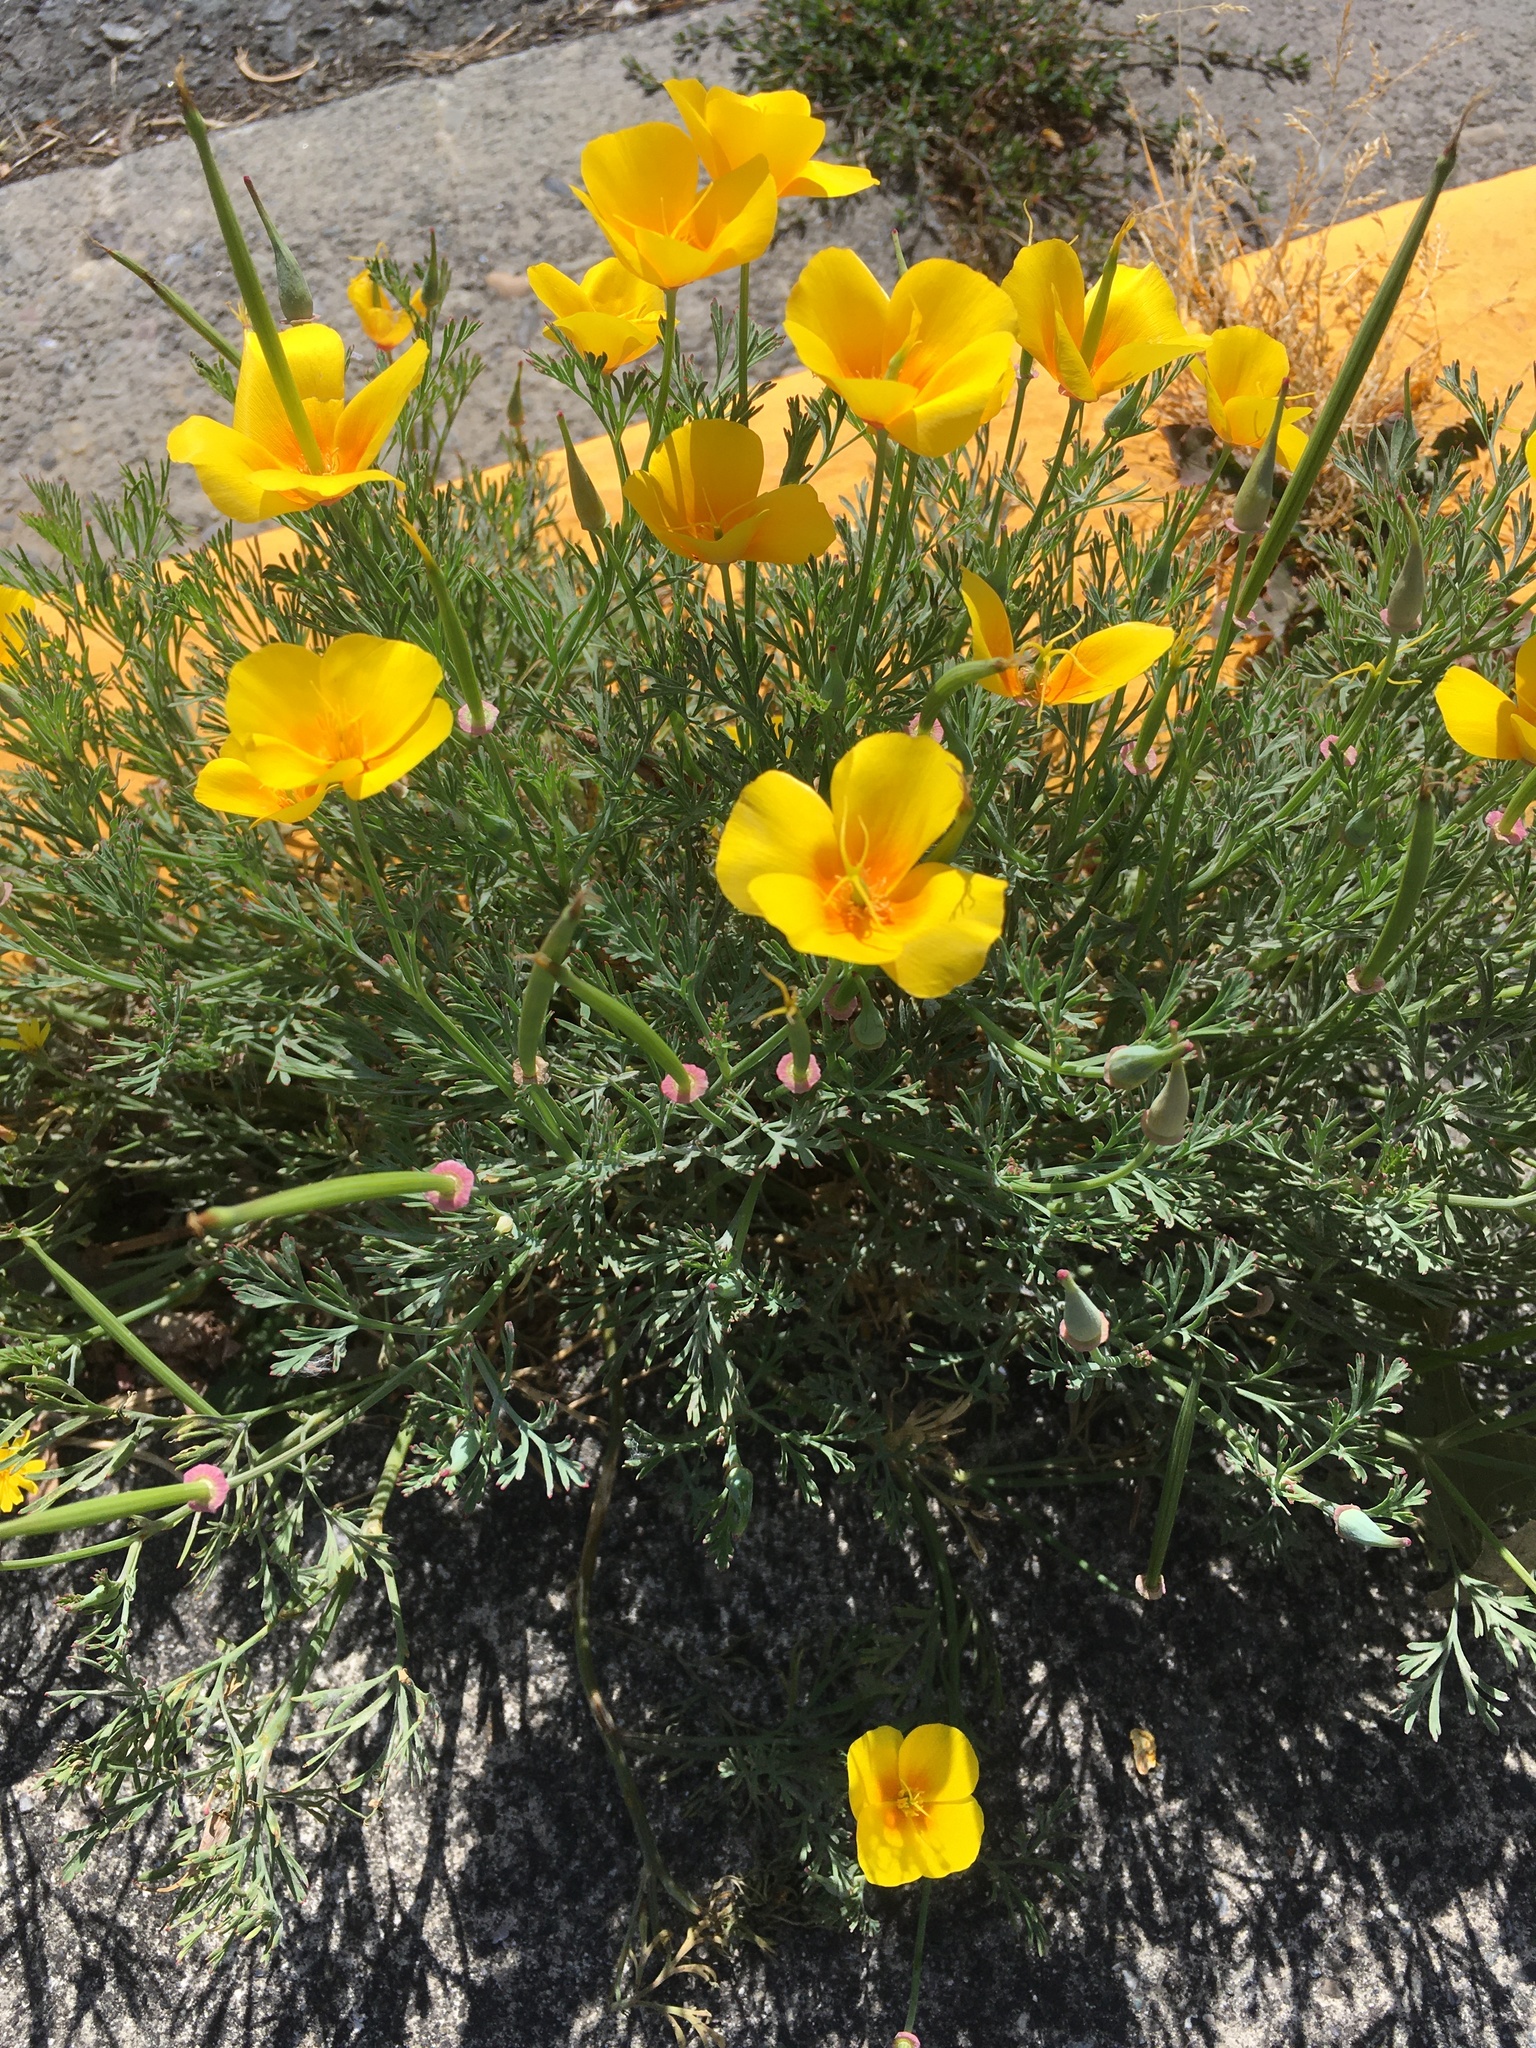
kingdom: Plantae
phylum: Tracheophyta
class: Magnoliopsida
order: Ranunculales
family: Papaveraceae
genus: Eschscholzia
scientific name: Eschscholzia californica
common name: California poppy
